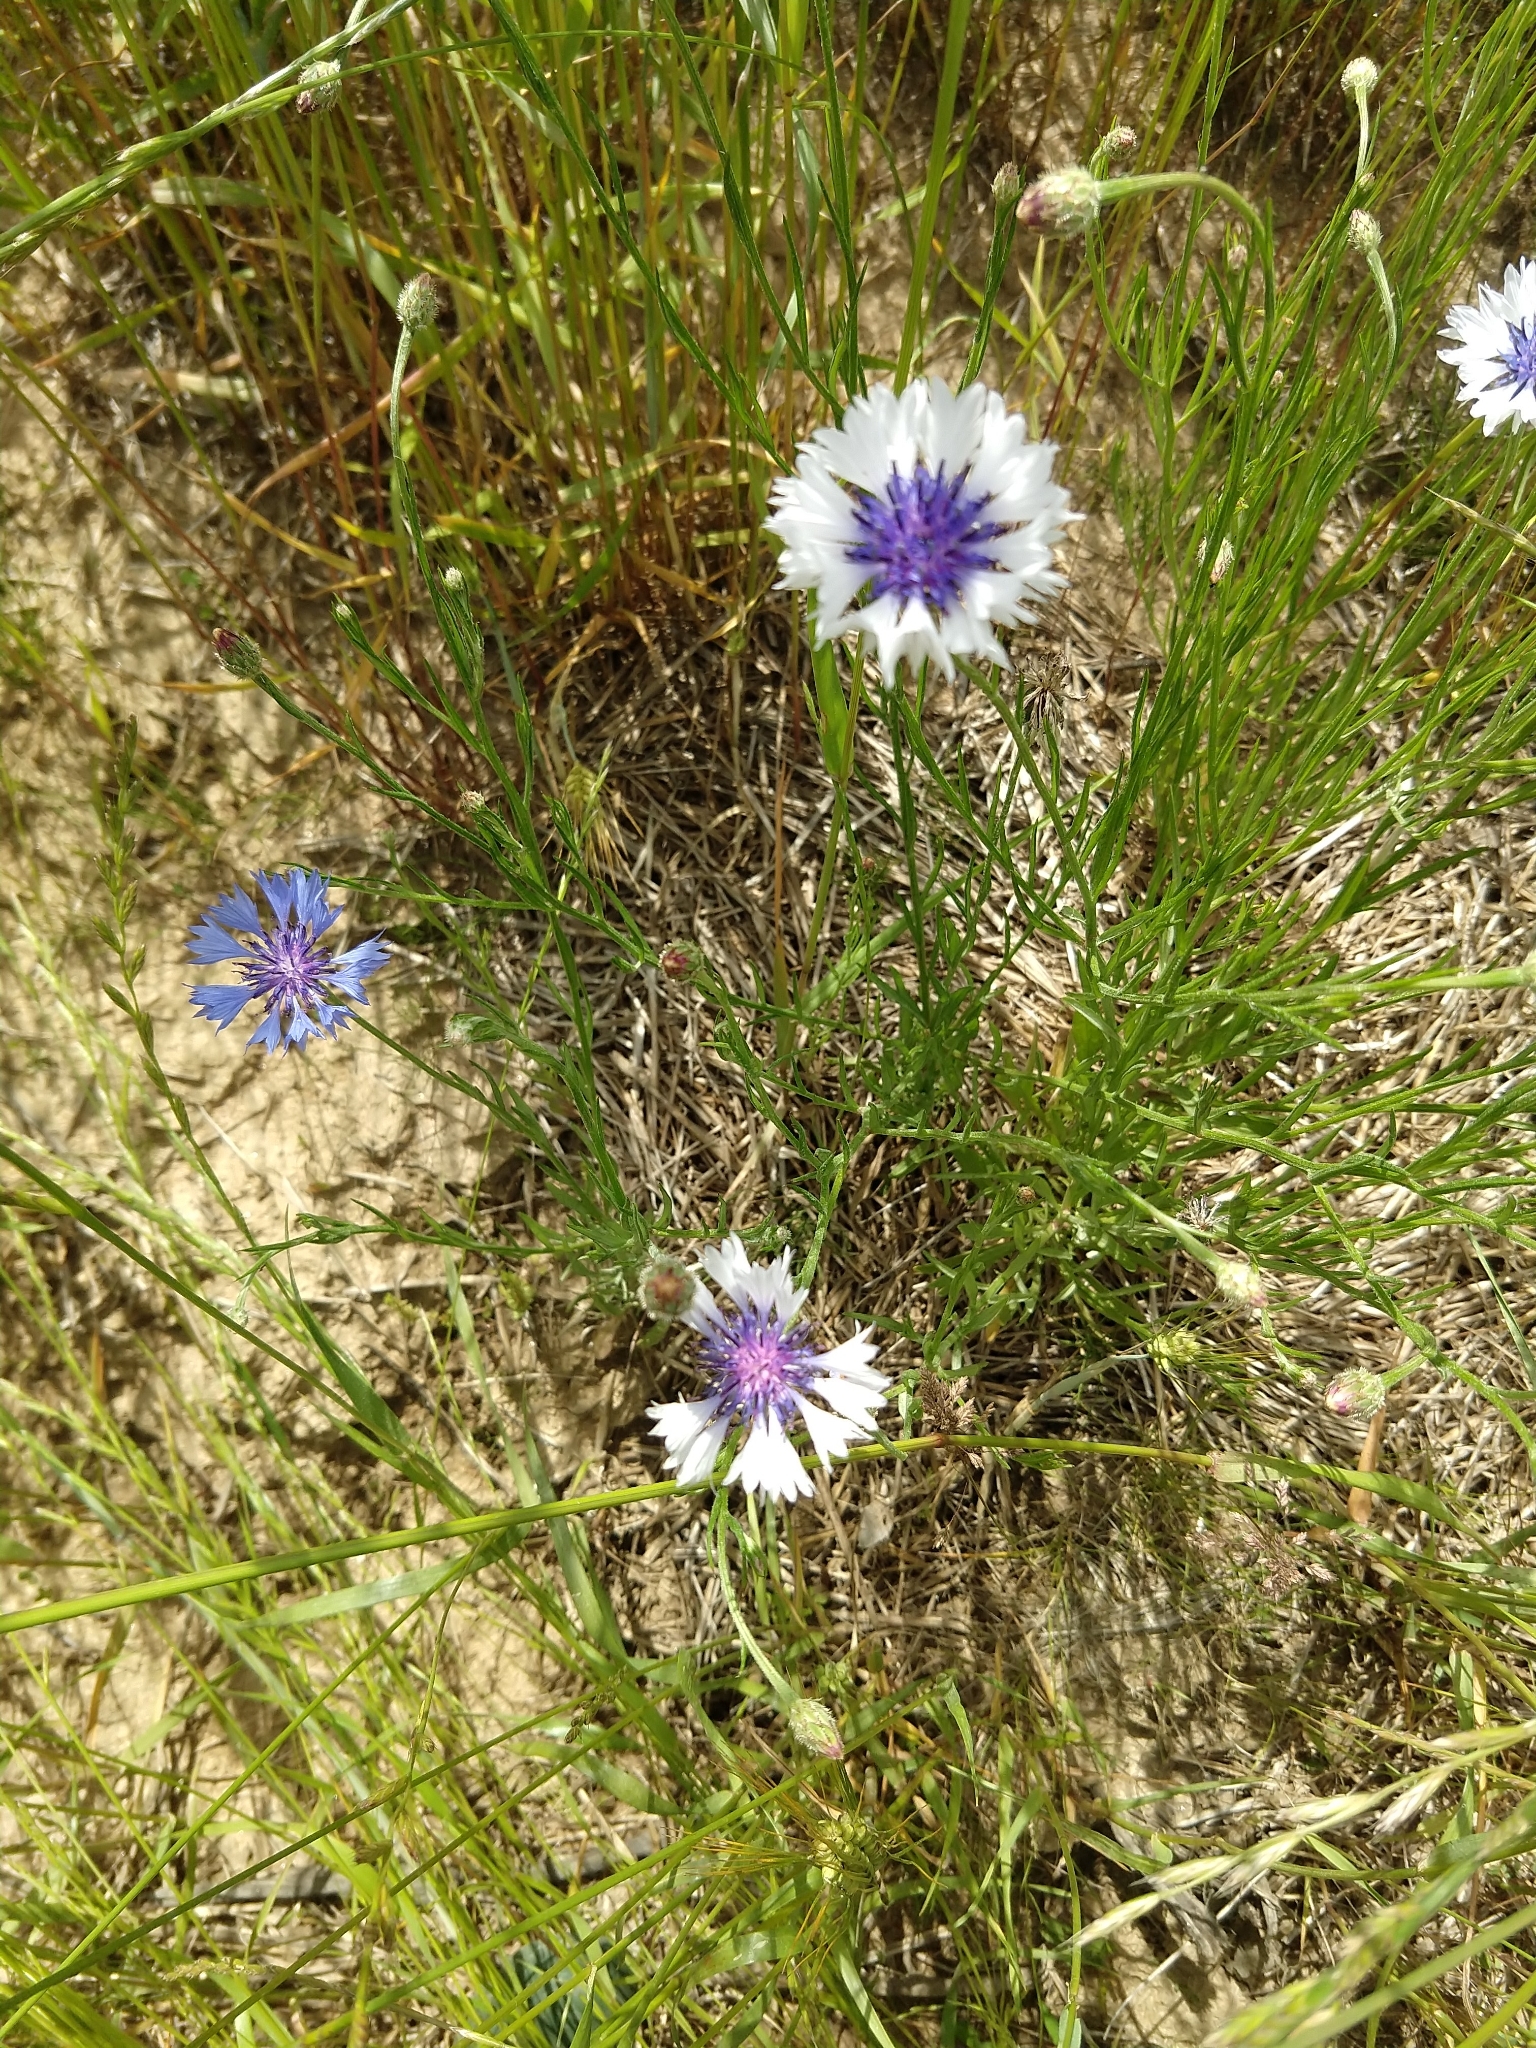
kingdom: Plantae
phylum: Tracheophyta
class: Magnoliopsida
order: Asterales
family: Asteraceae
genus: Centaurea
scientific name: Centaurea cyanus
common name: Cornflower
